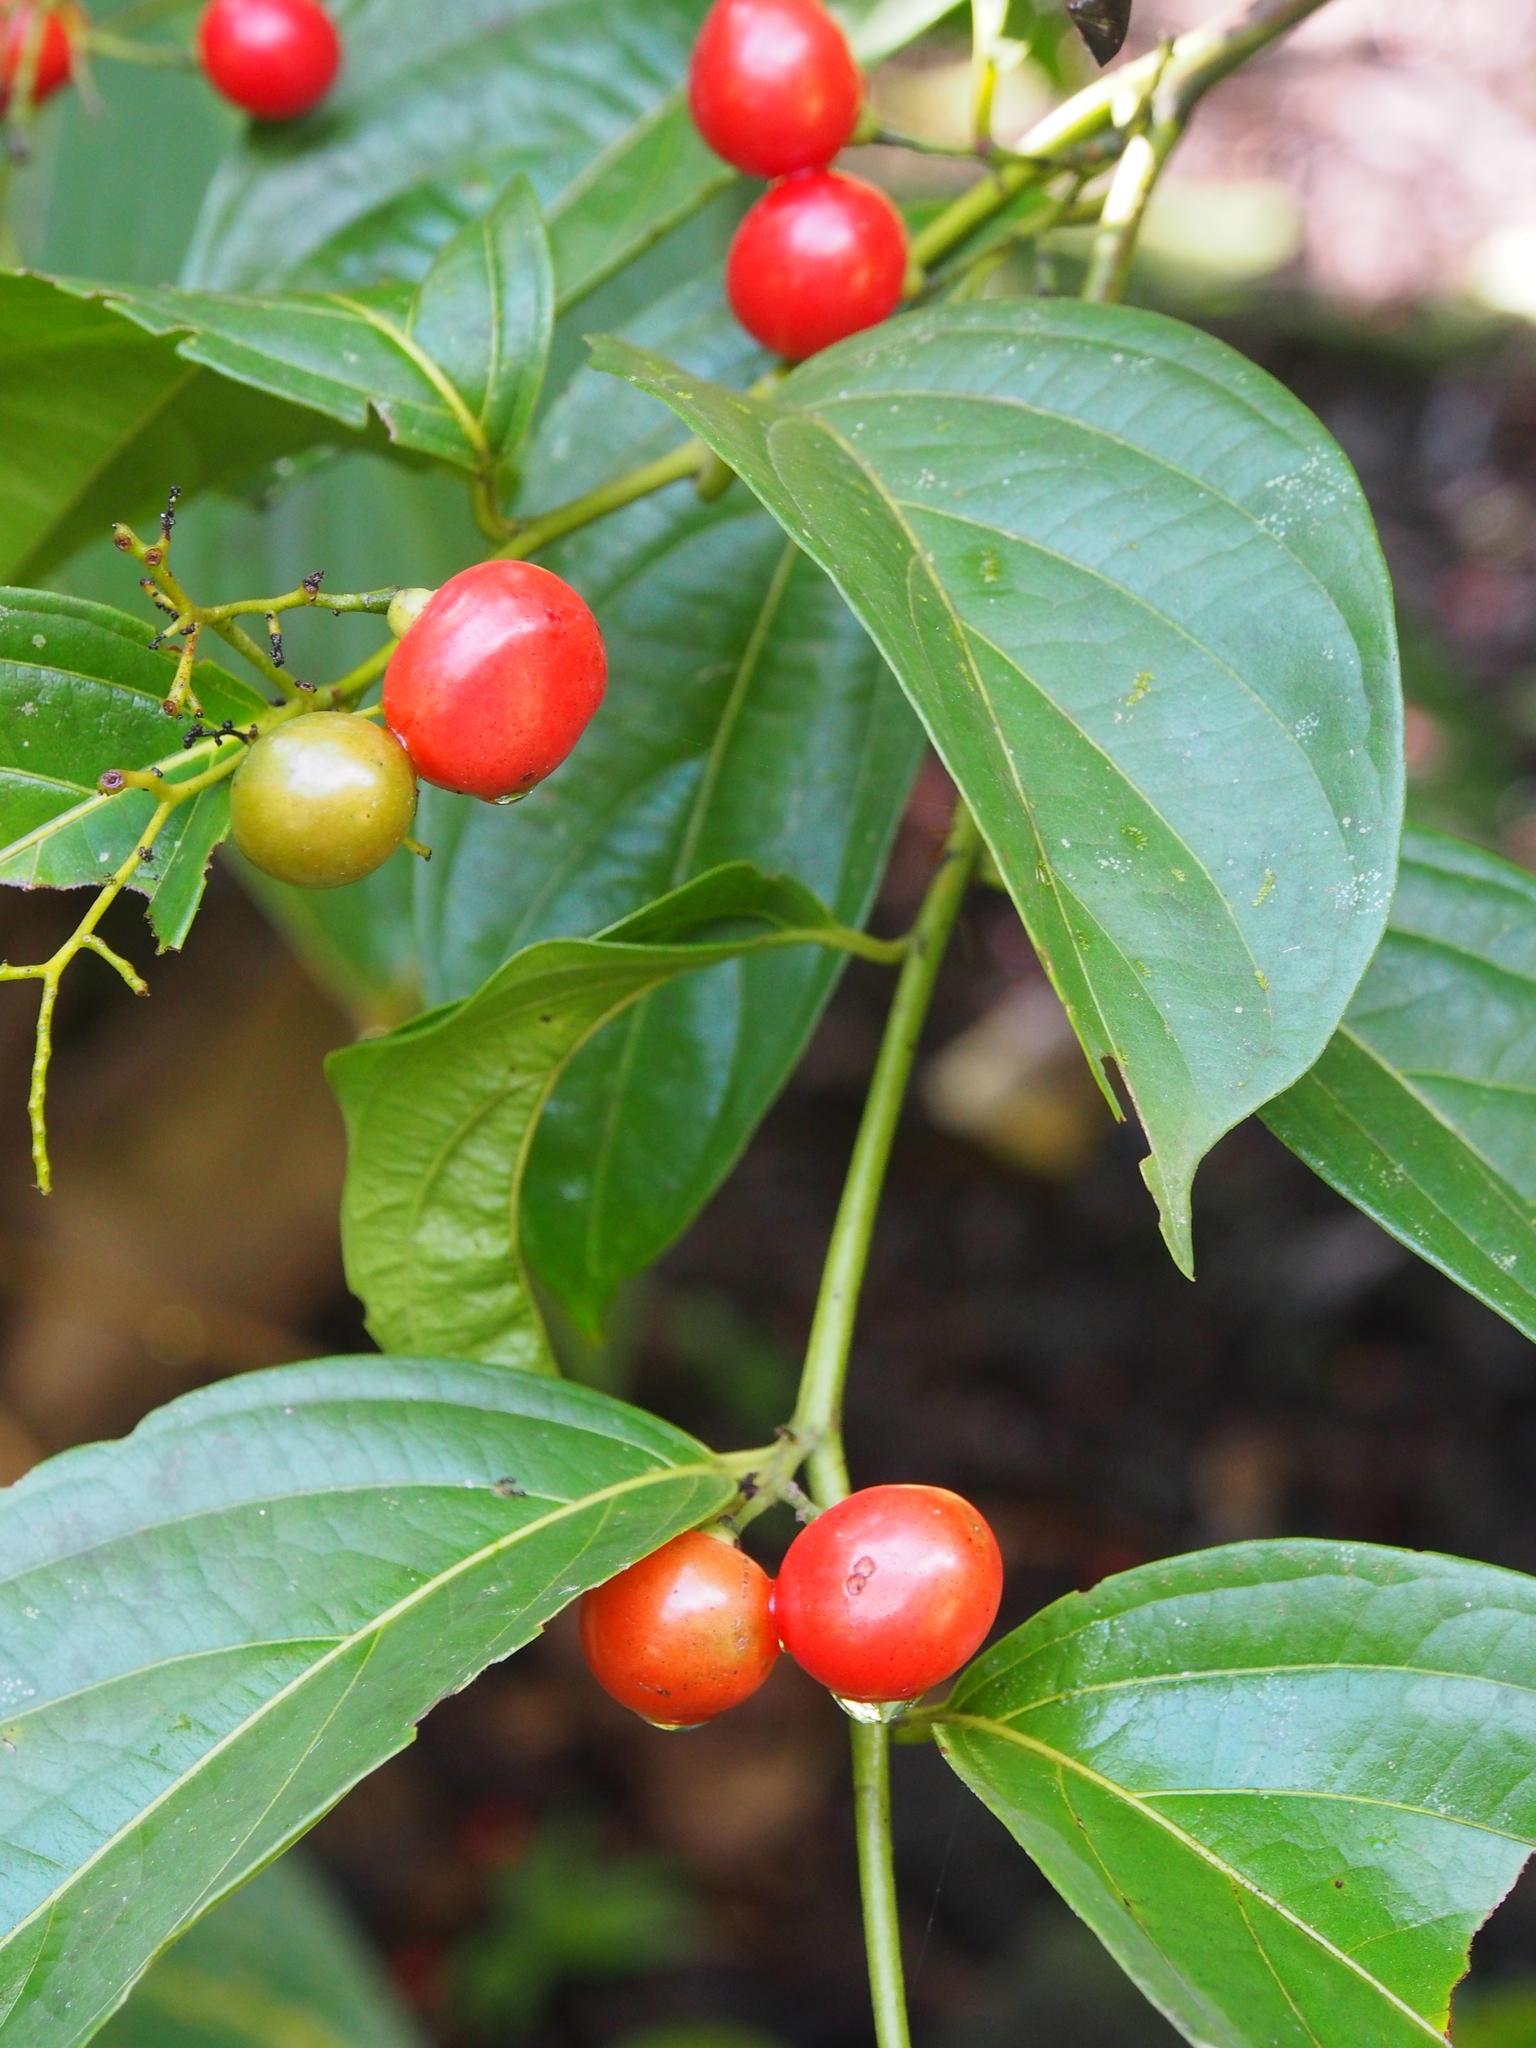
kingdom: Plantae
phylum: Tracheophyta
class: Magnoliopsida
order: Boraginales
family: Cordiaceae
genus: Cordia
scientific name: Cordia lucidula
